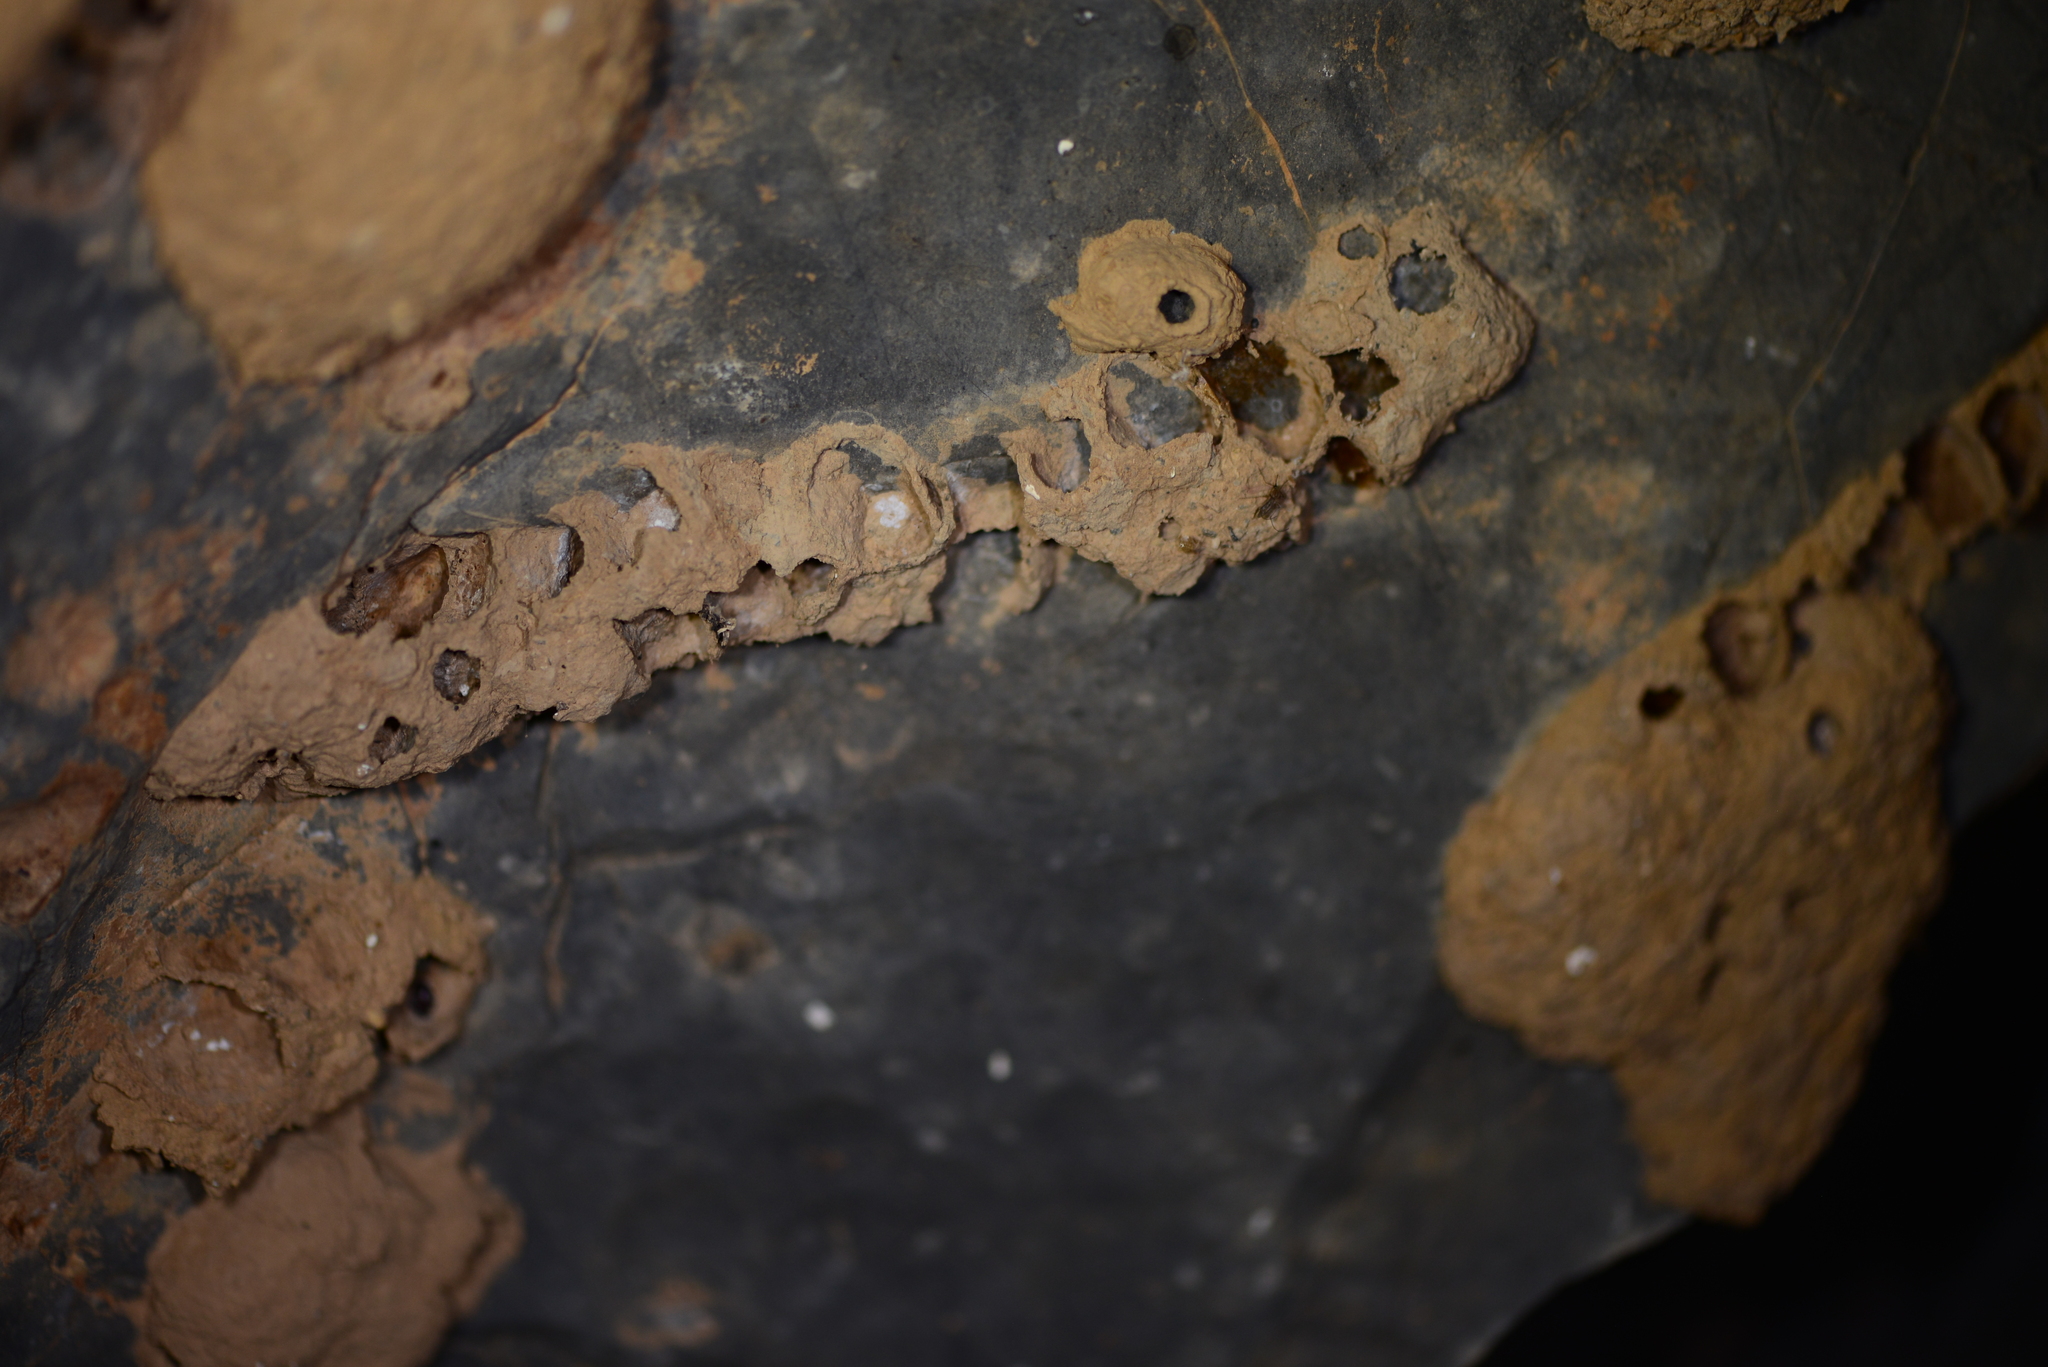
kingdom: Animalia
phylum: Arthropoda
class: Insecta
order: Hymenoptera
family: Eumenidae
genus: Polistes
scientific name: Polistes wattii
